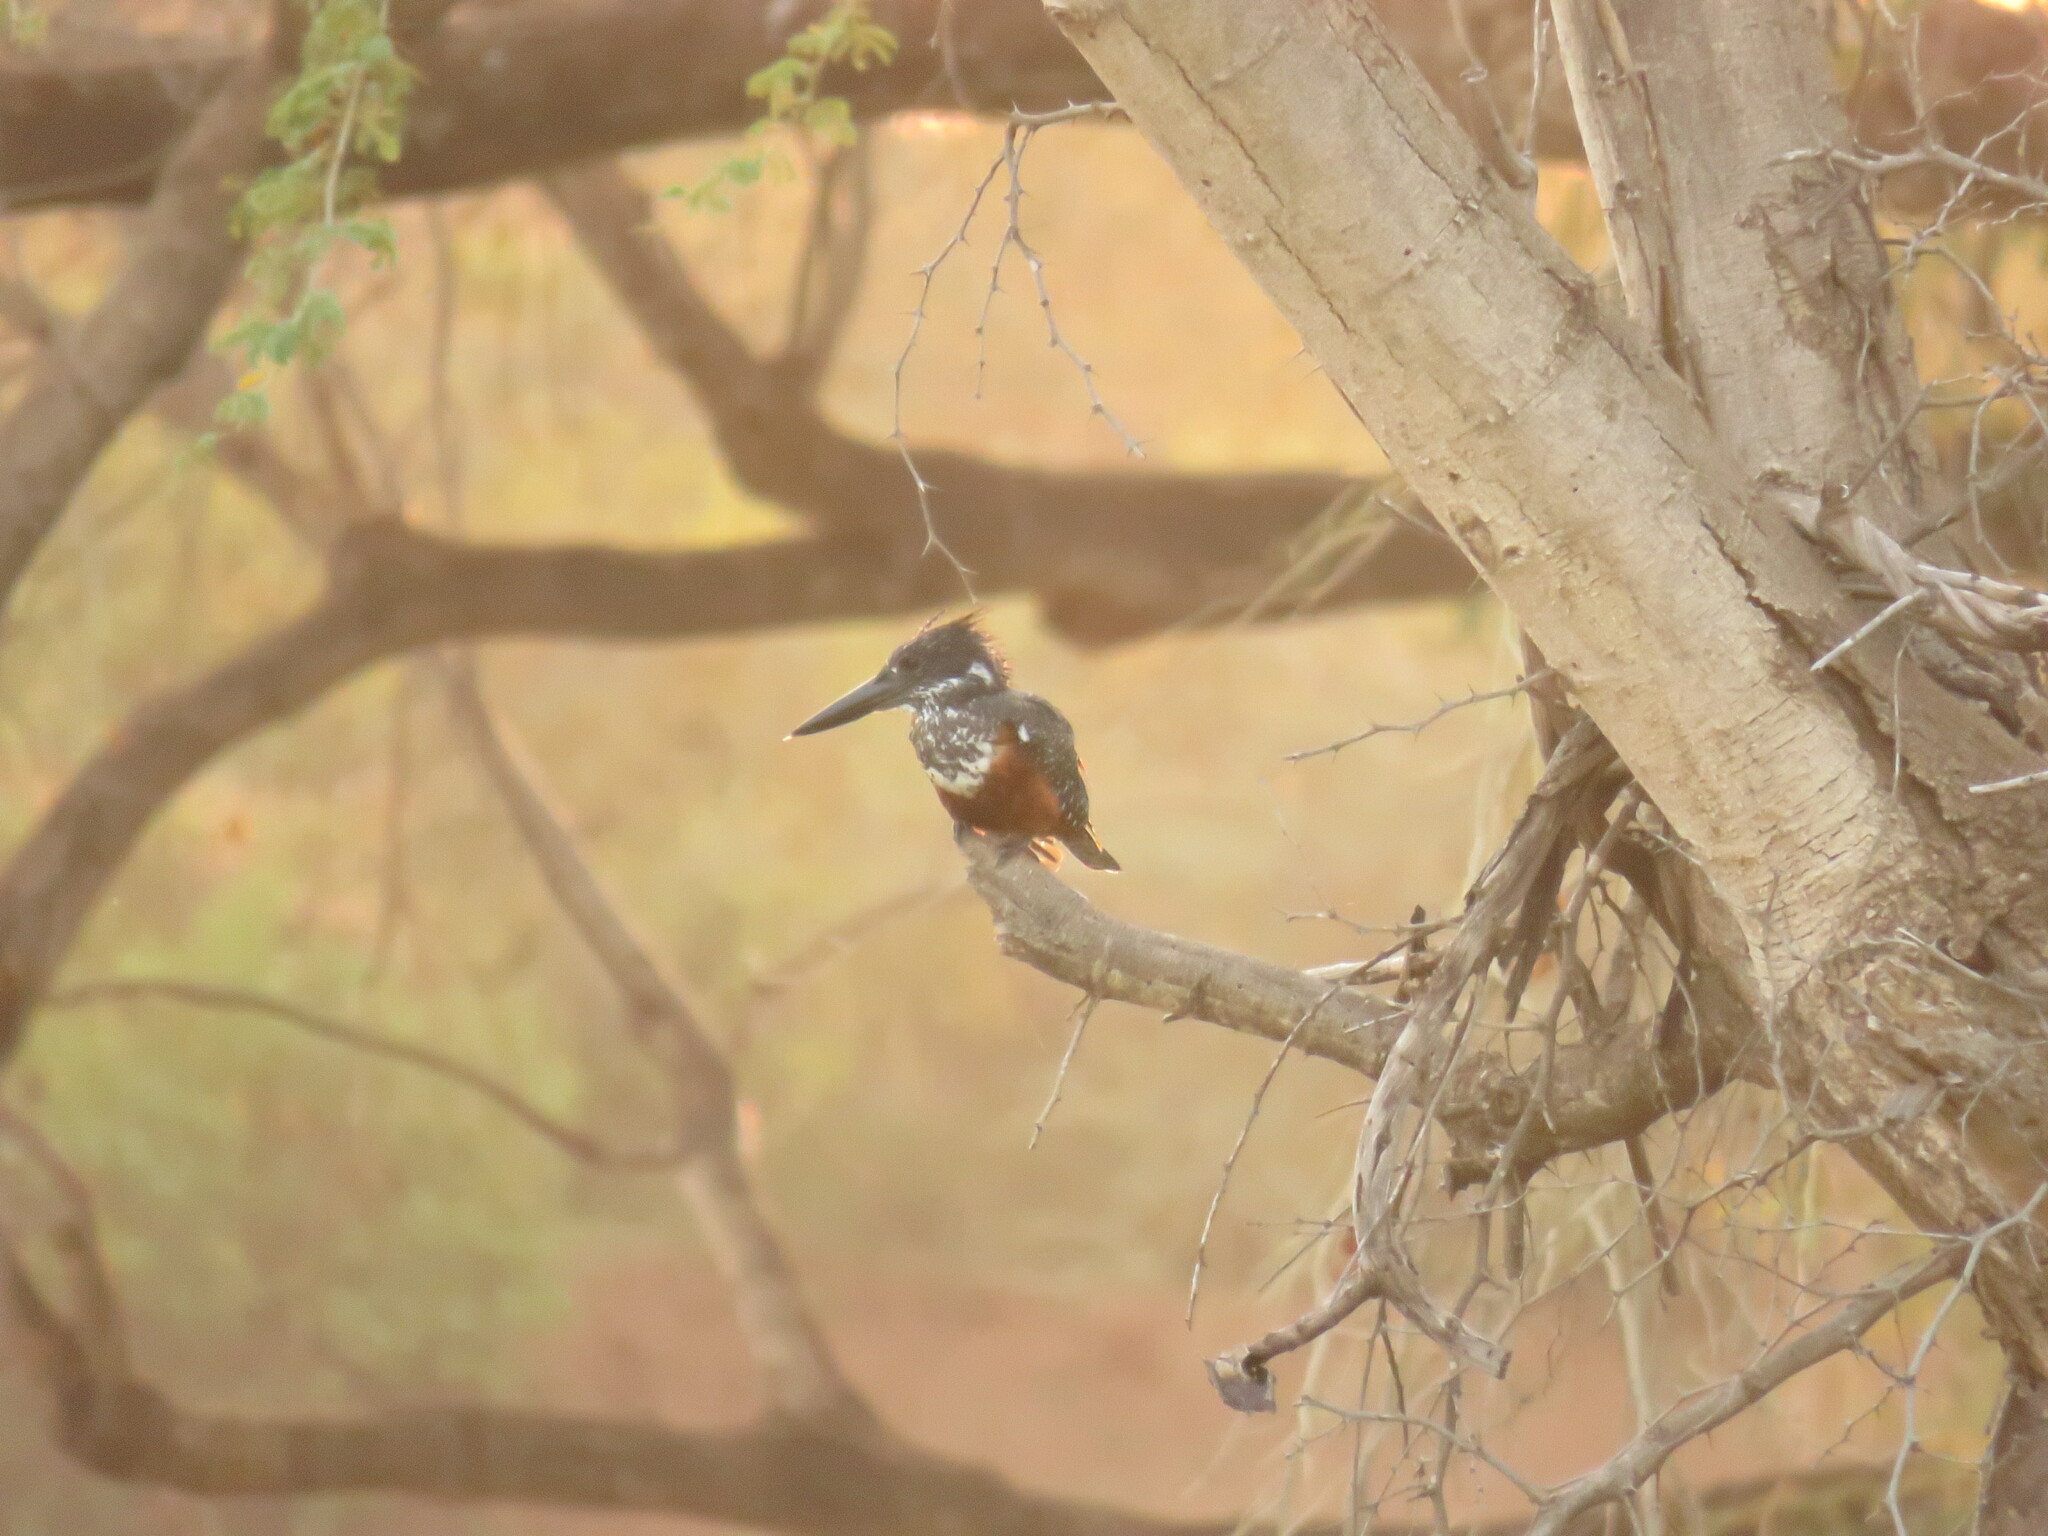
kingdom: Animalia
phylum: Chordata
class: Aves
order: Coraciiformes
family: Alcedinidae
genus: Megaceryle
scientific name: Megaceryle maxima
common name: Giant kingfisher
